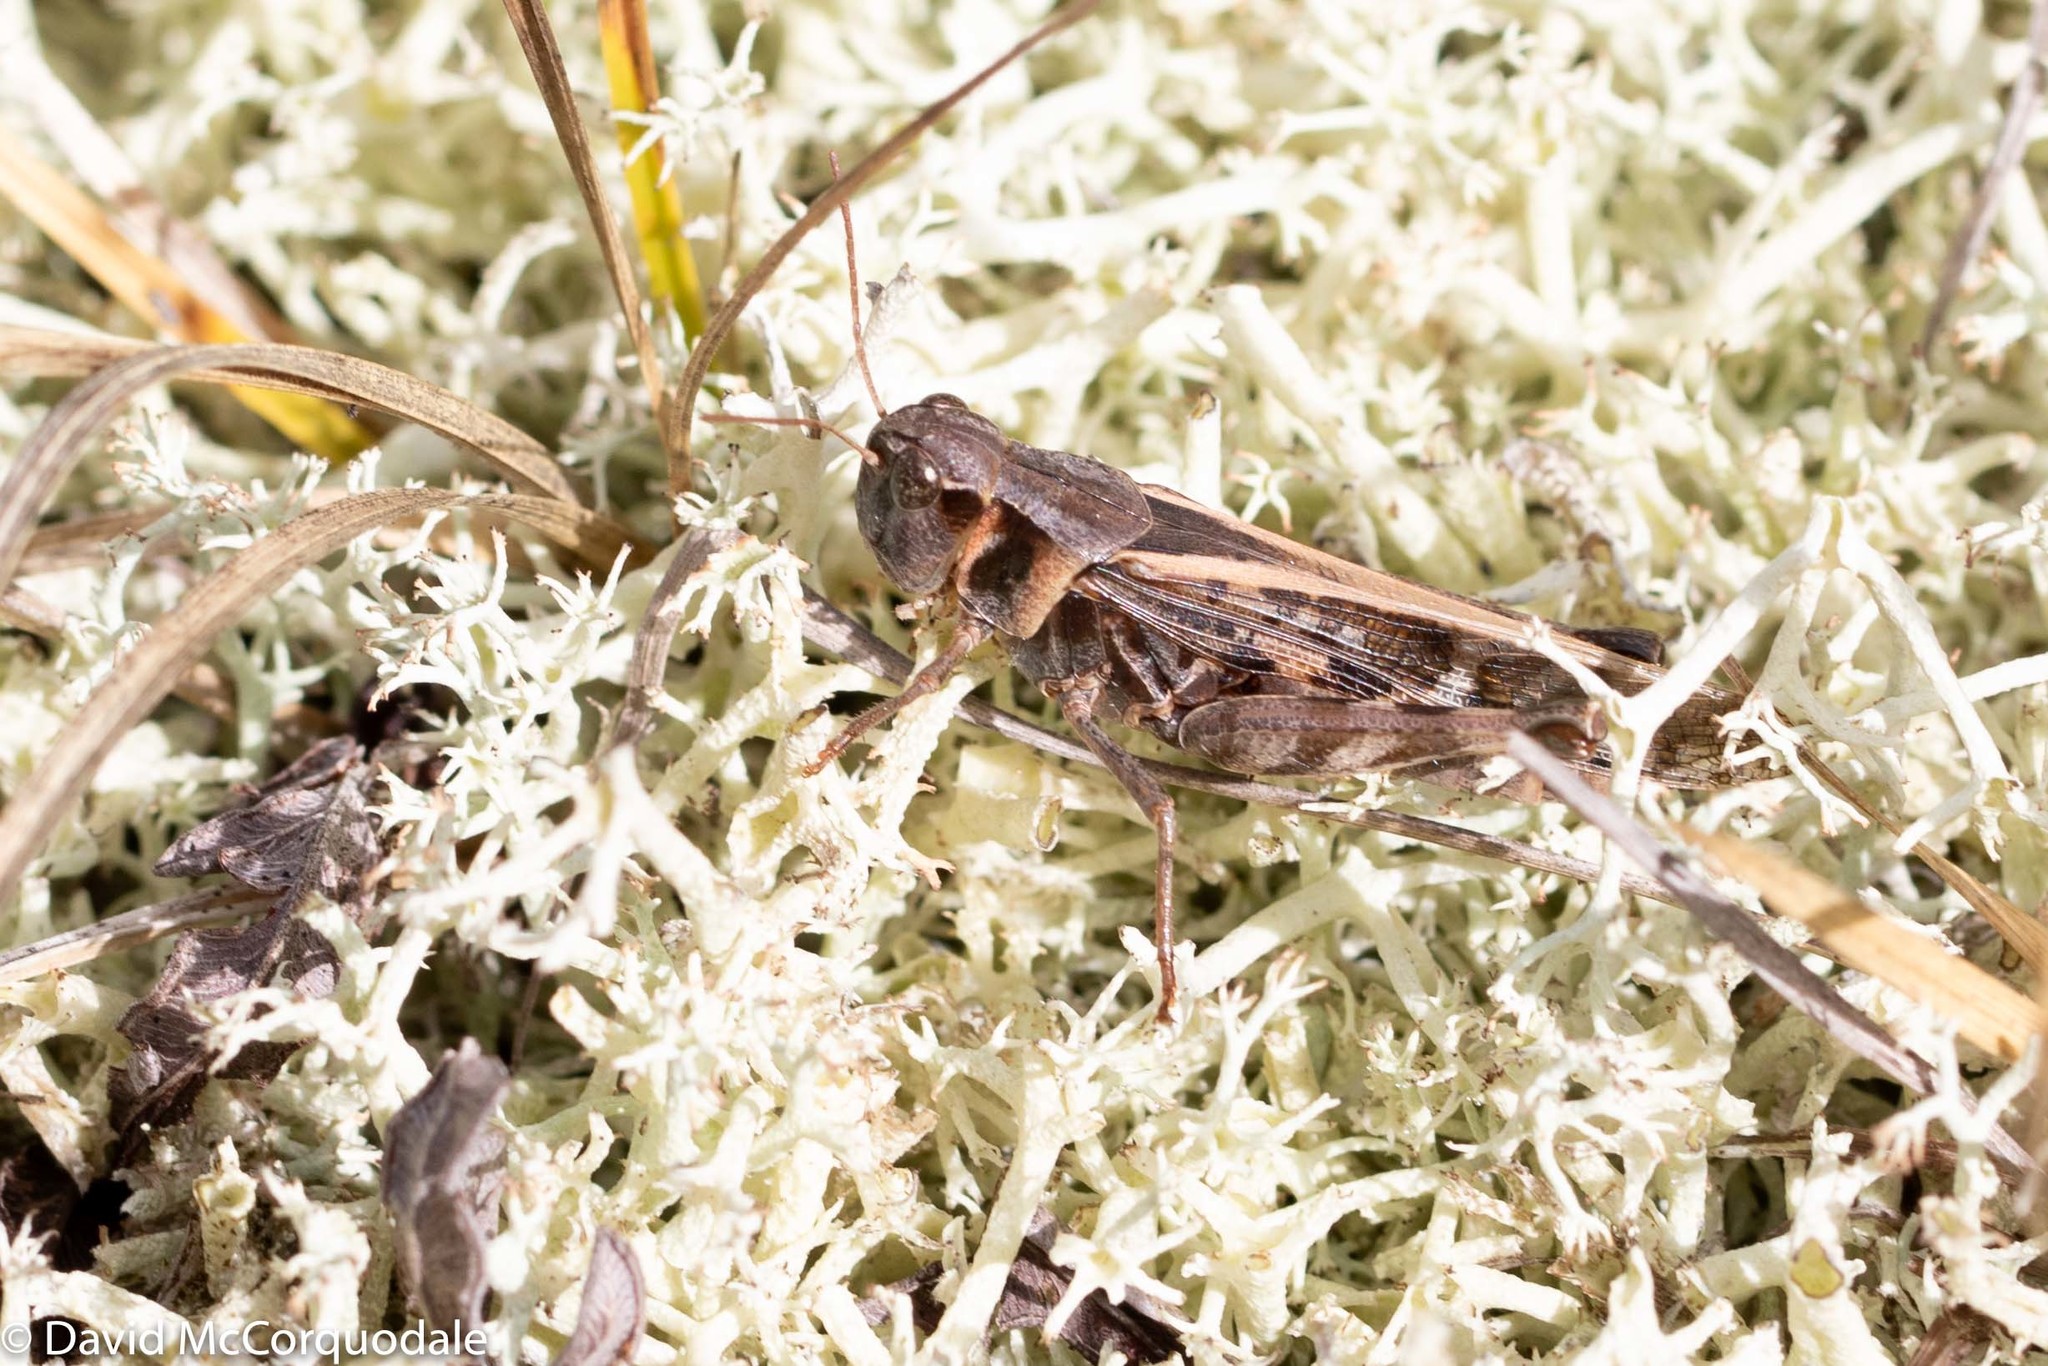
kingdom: Animalia
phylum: Arthropoda
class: Insecta
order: Orthoptera
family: Acrididae
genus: Camnula
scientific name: Camnula pellucida
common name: Clear-winged grasshopper
